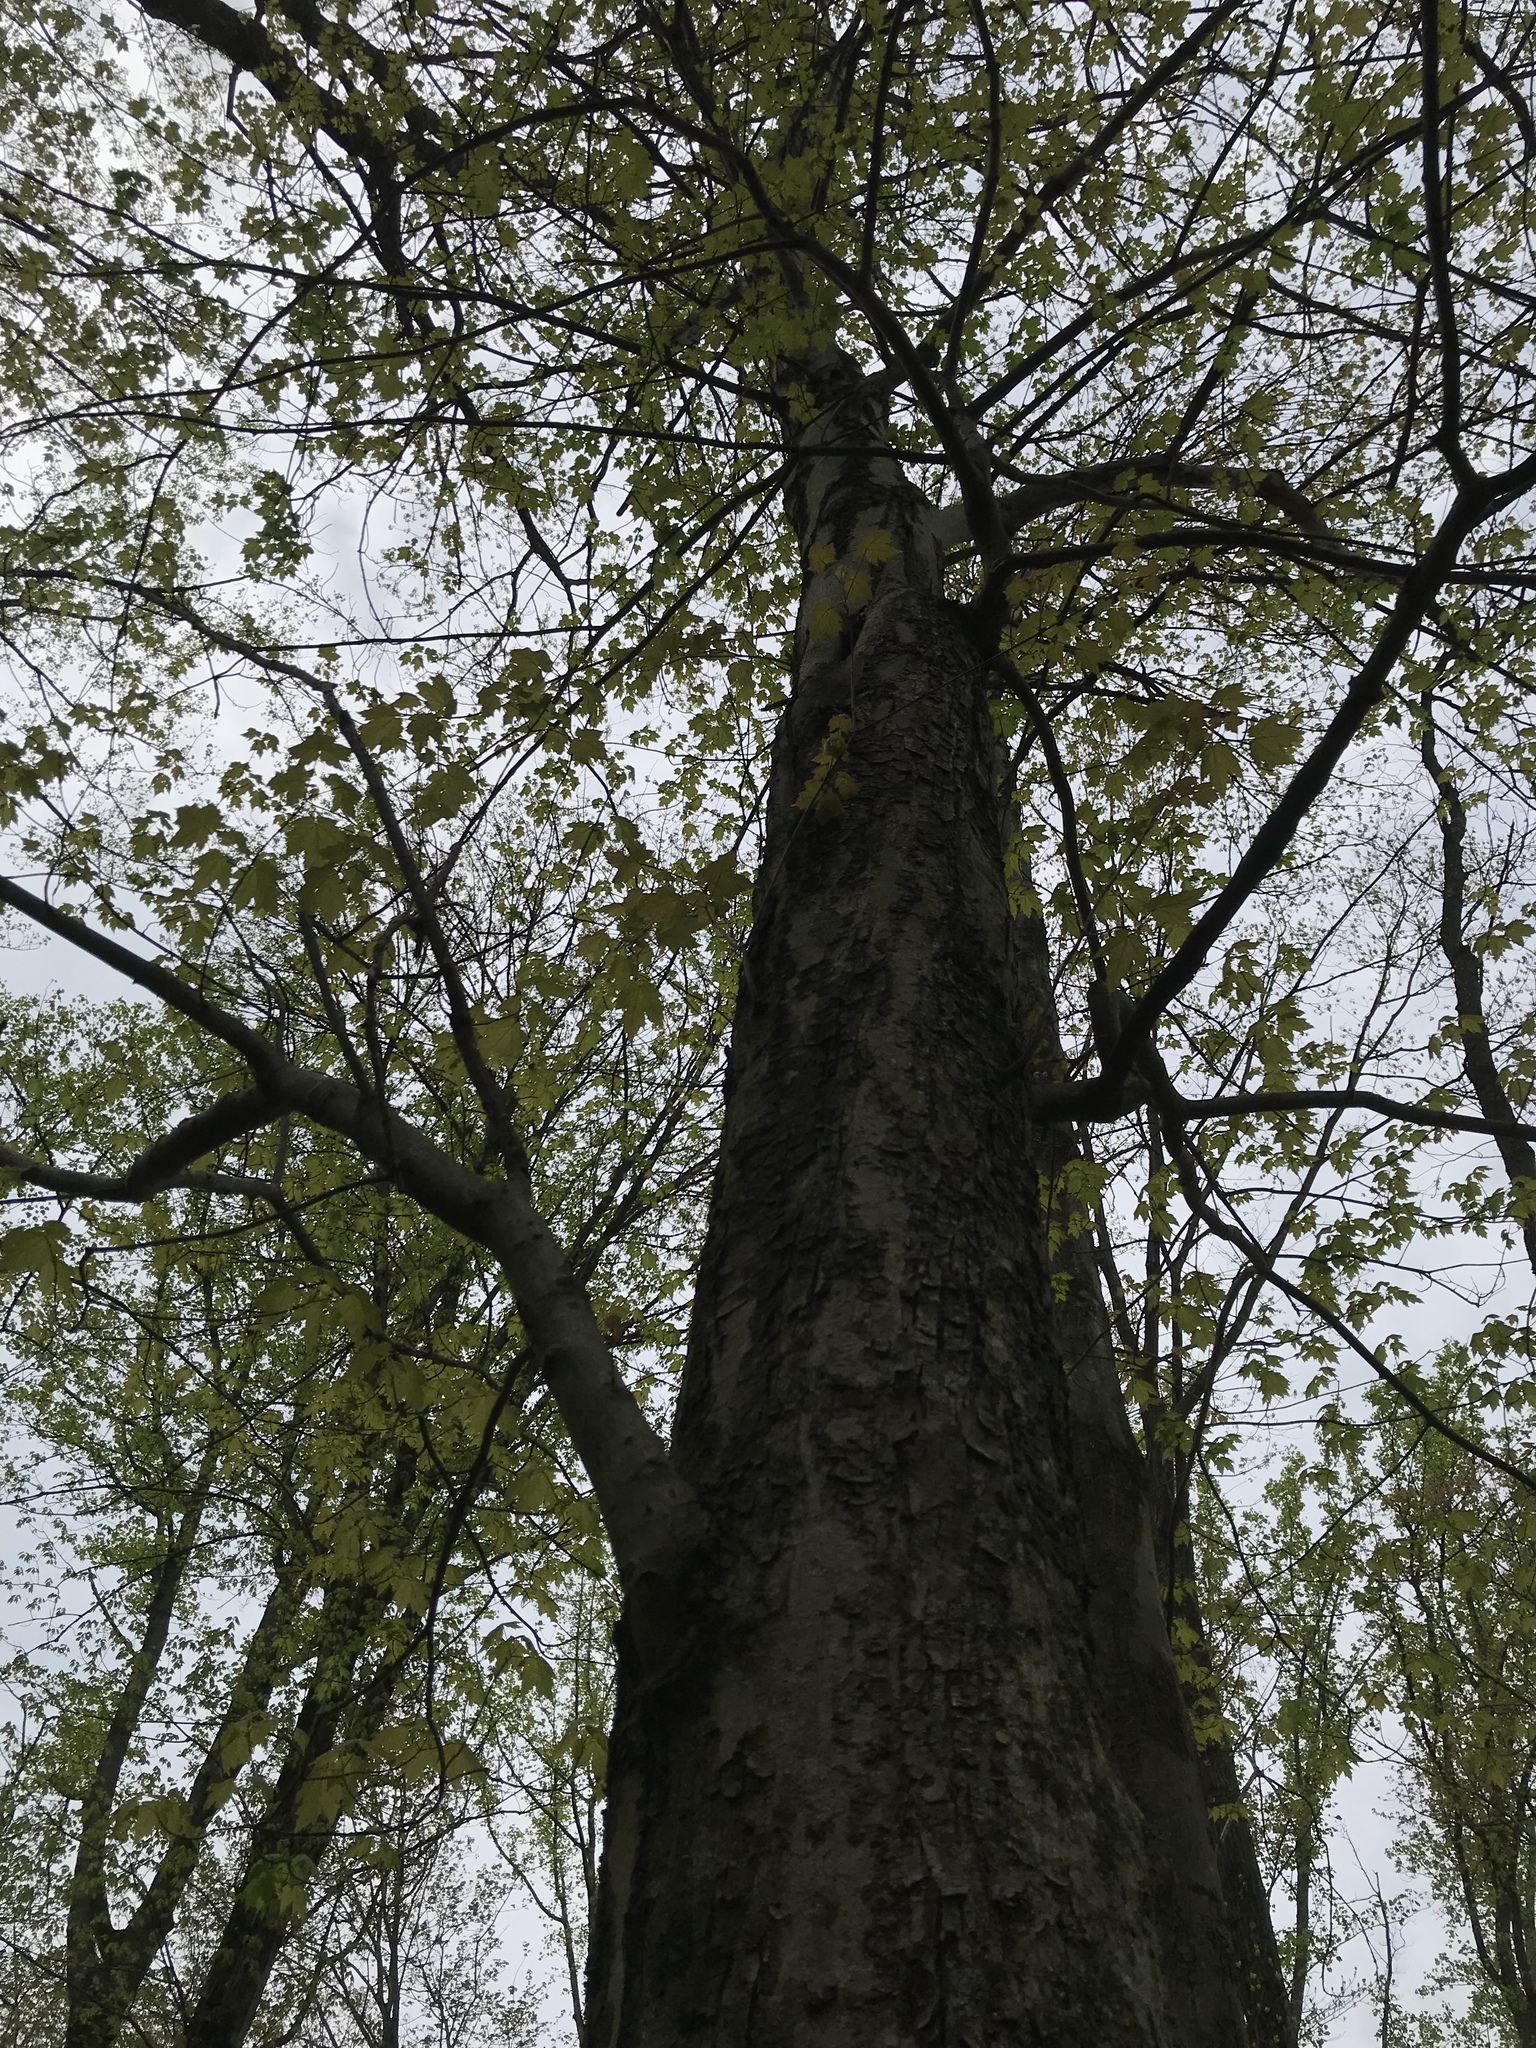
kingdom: Plantae
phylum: Tracheophyta
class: Magnoliopsida
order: Sapindales
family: Sapindaceae
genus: Acer
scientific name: Acer rubrum
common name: Red maple
